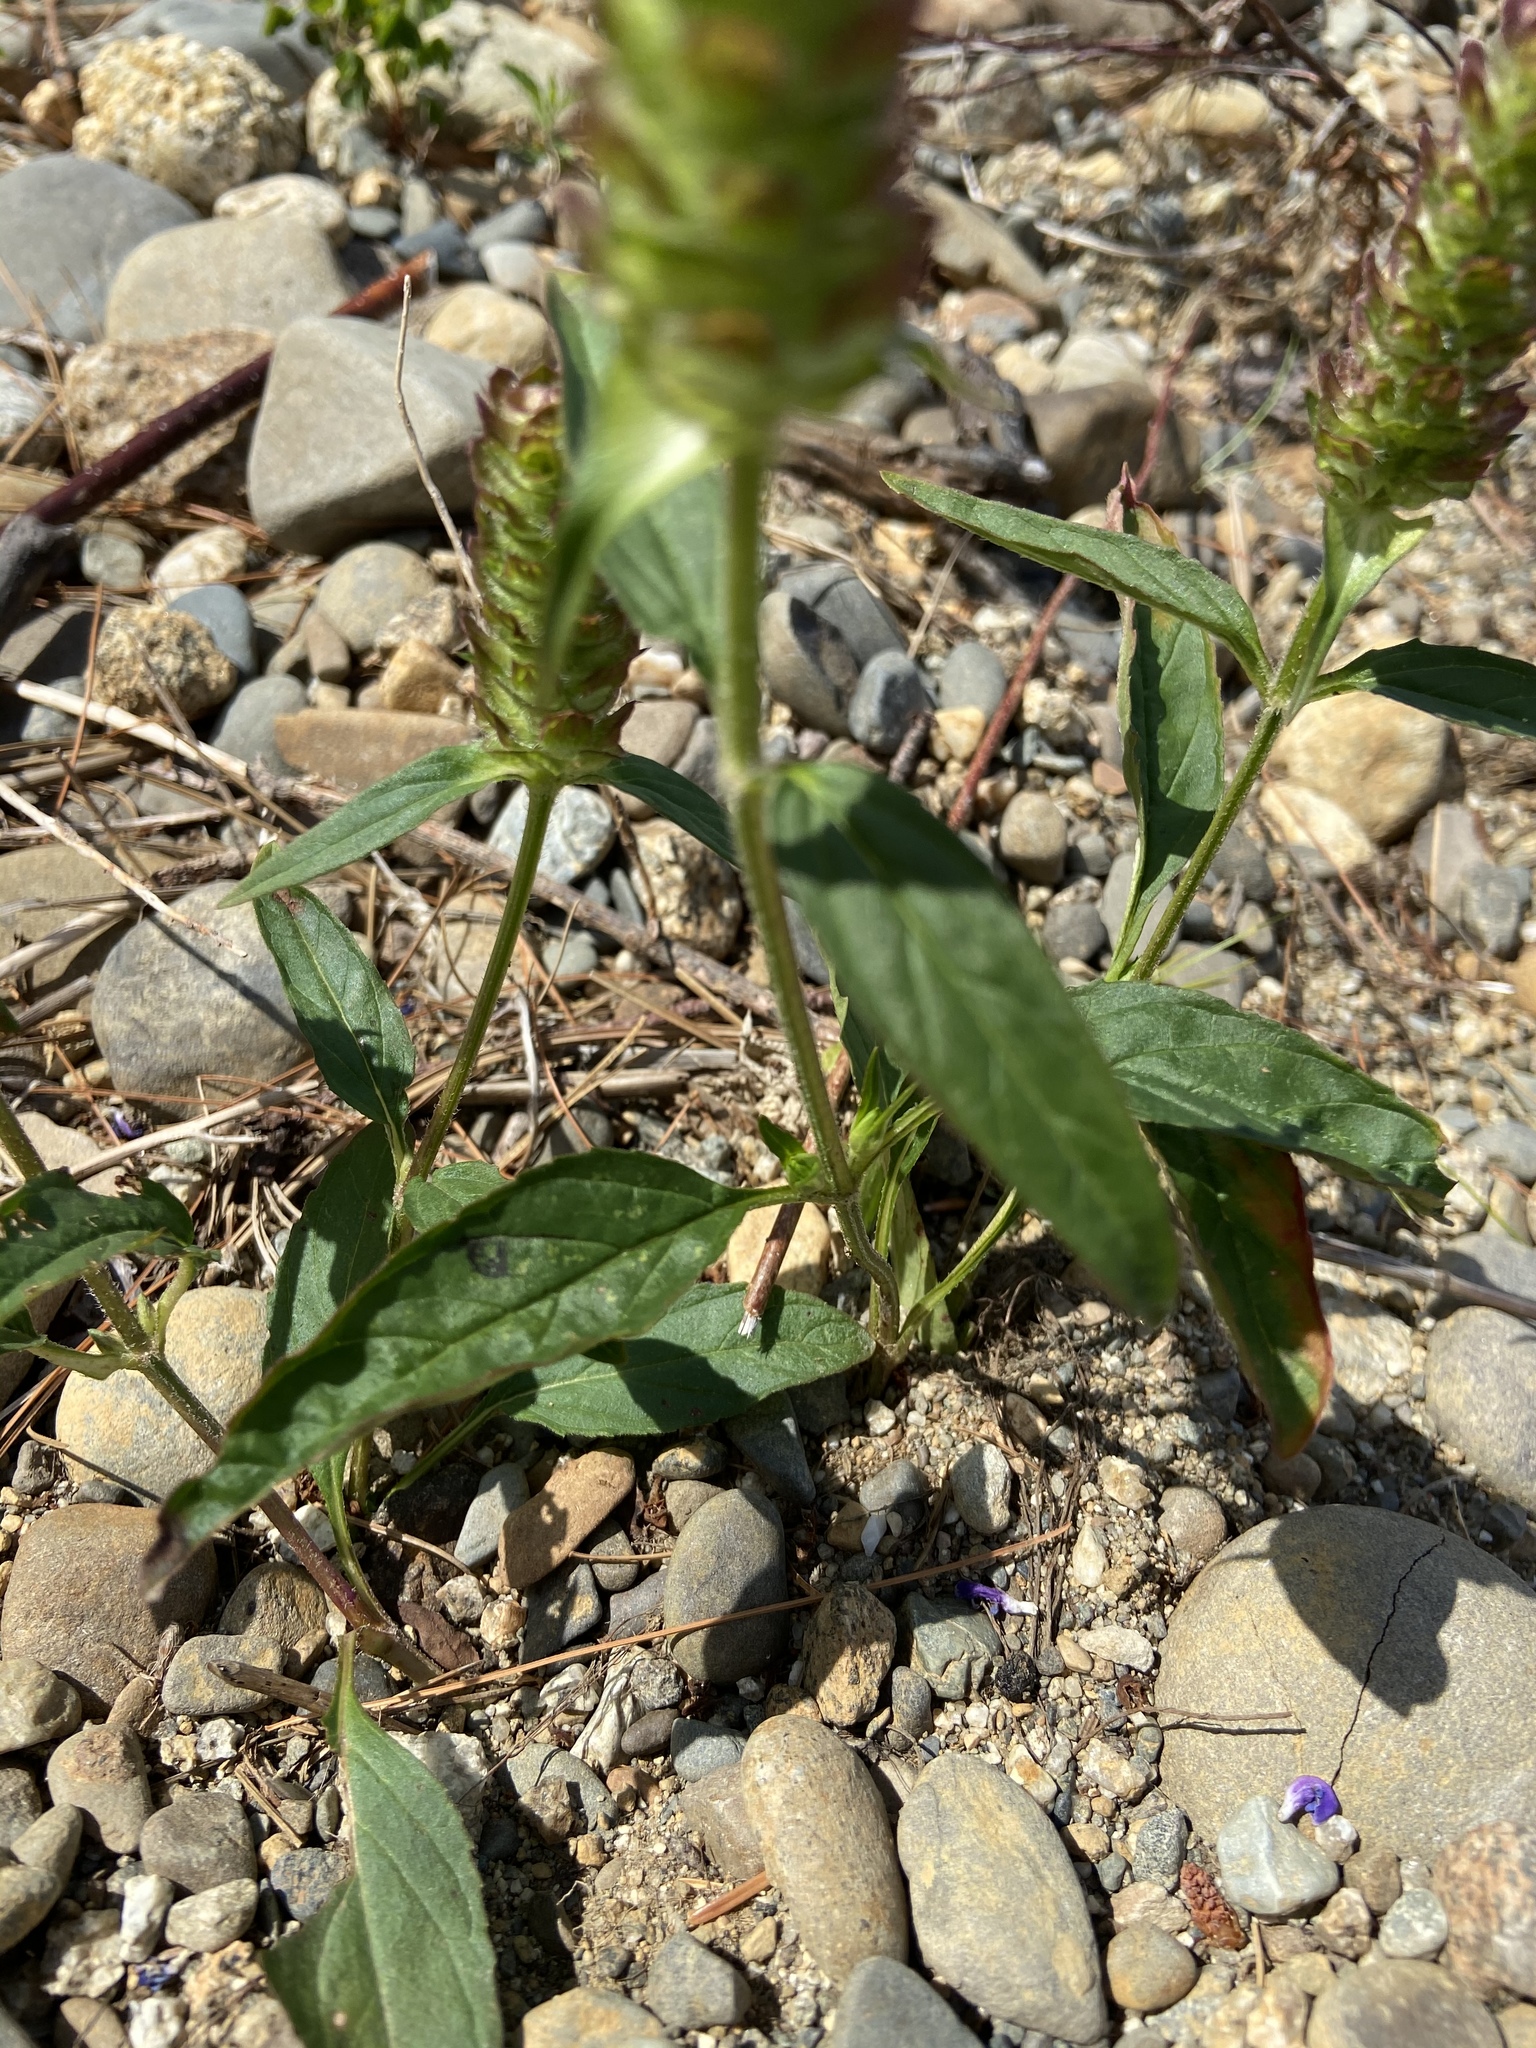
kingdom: Plantae
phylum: Tracheophyta
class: Magnoliopsida
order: Lamiales
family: Lamiaceae
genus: Prunella
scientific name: Prunella vulgaris
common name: Heal-all
